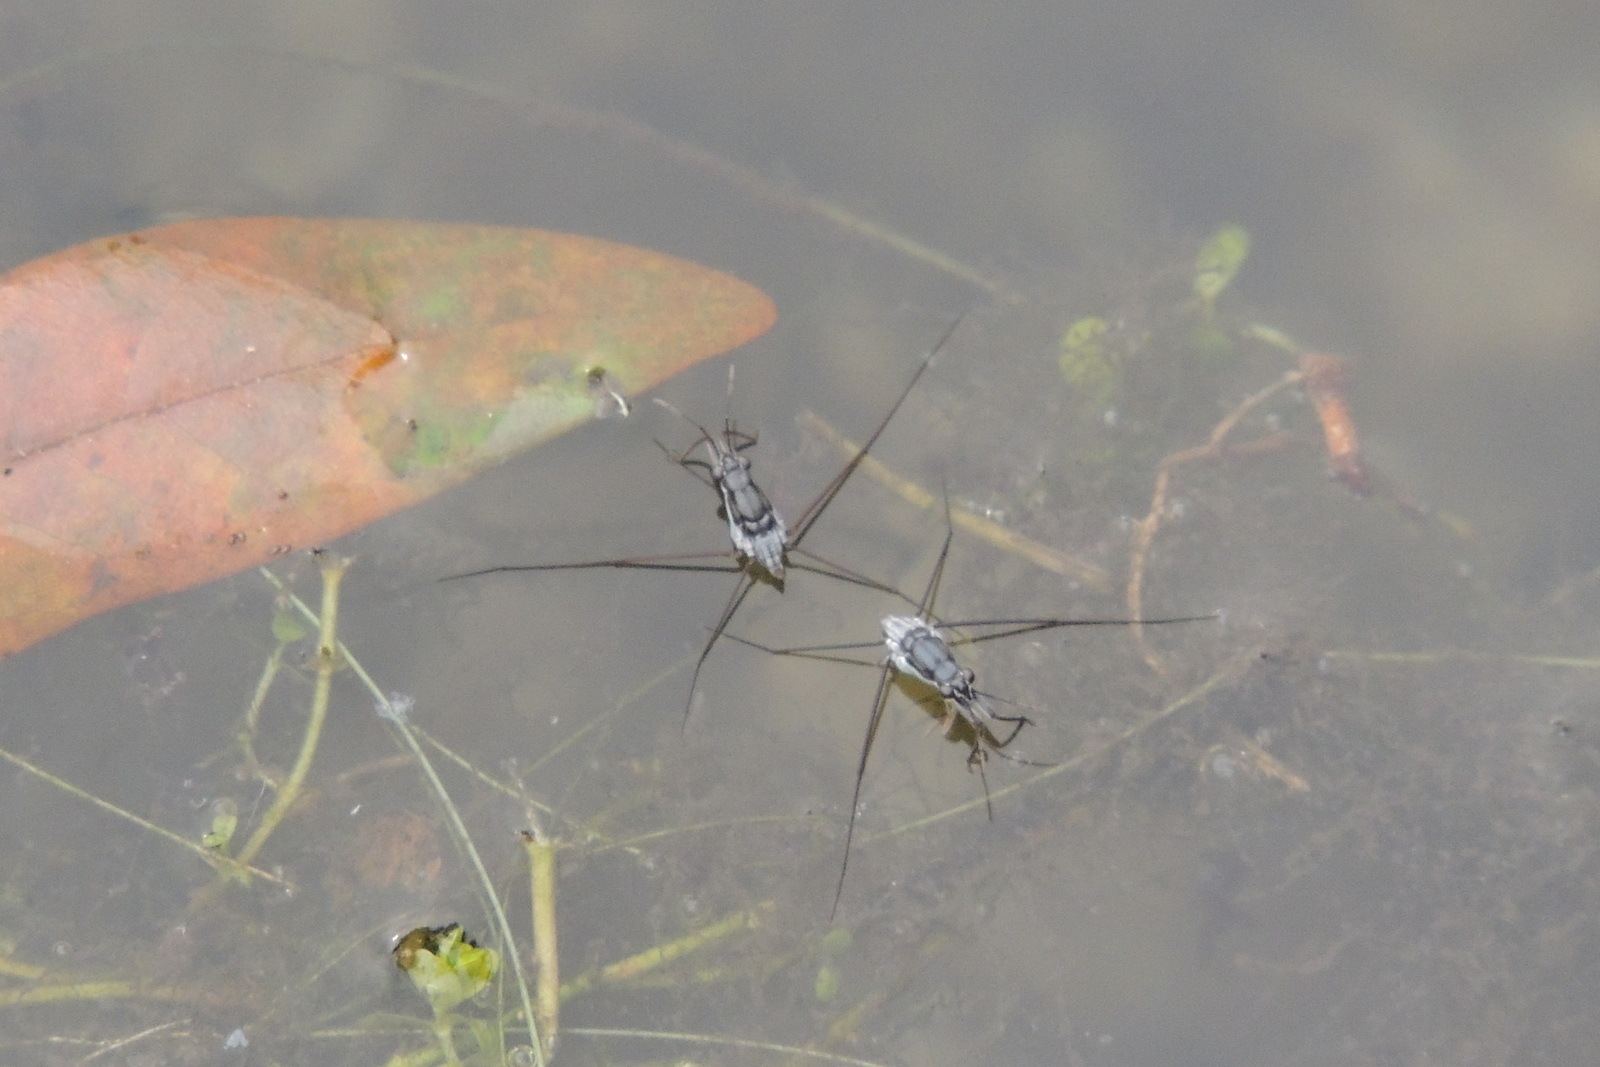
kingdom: Animalia
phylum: Arthropoda
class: Insecta
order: Hemiptera
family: Gerridae
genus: Neogerris
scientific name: Neogerris hesione
